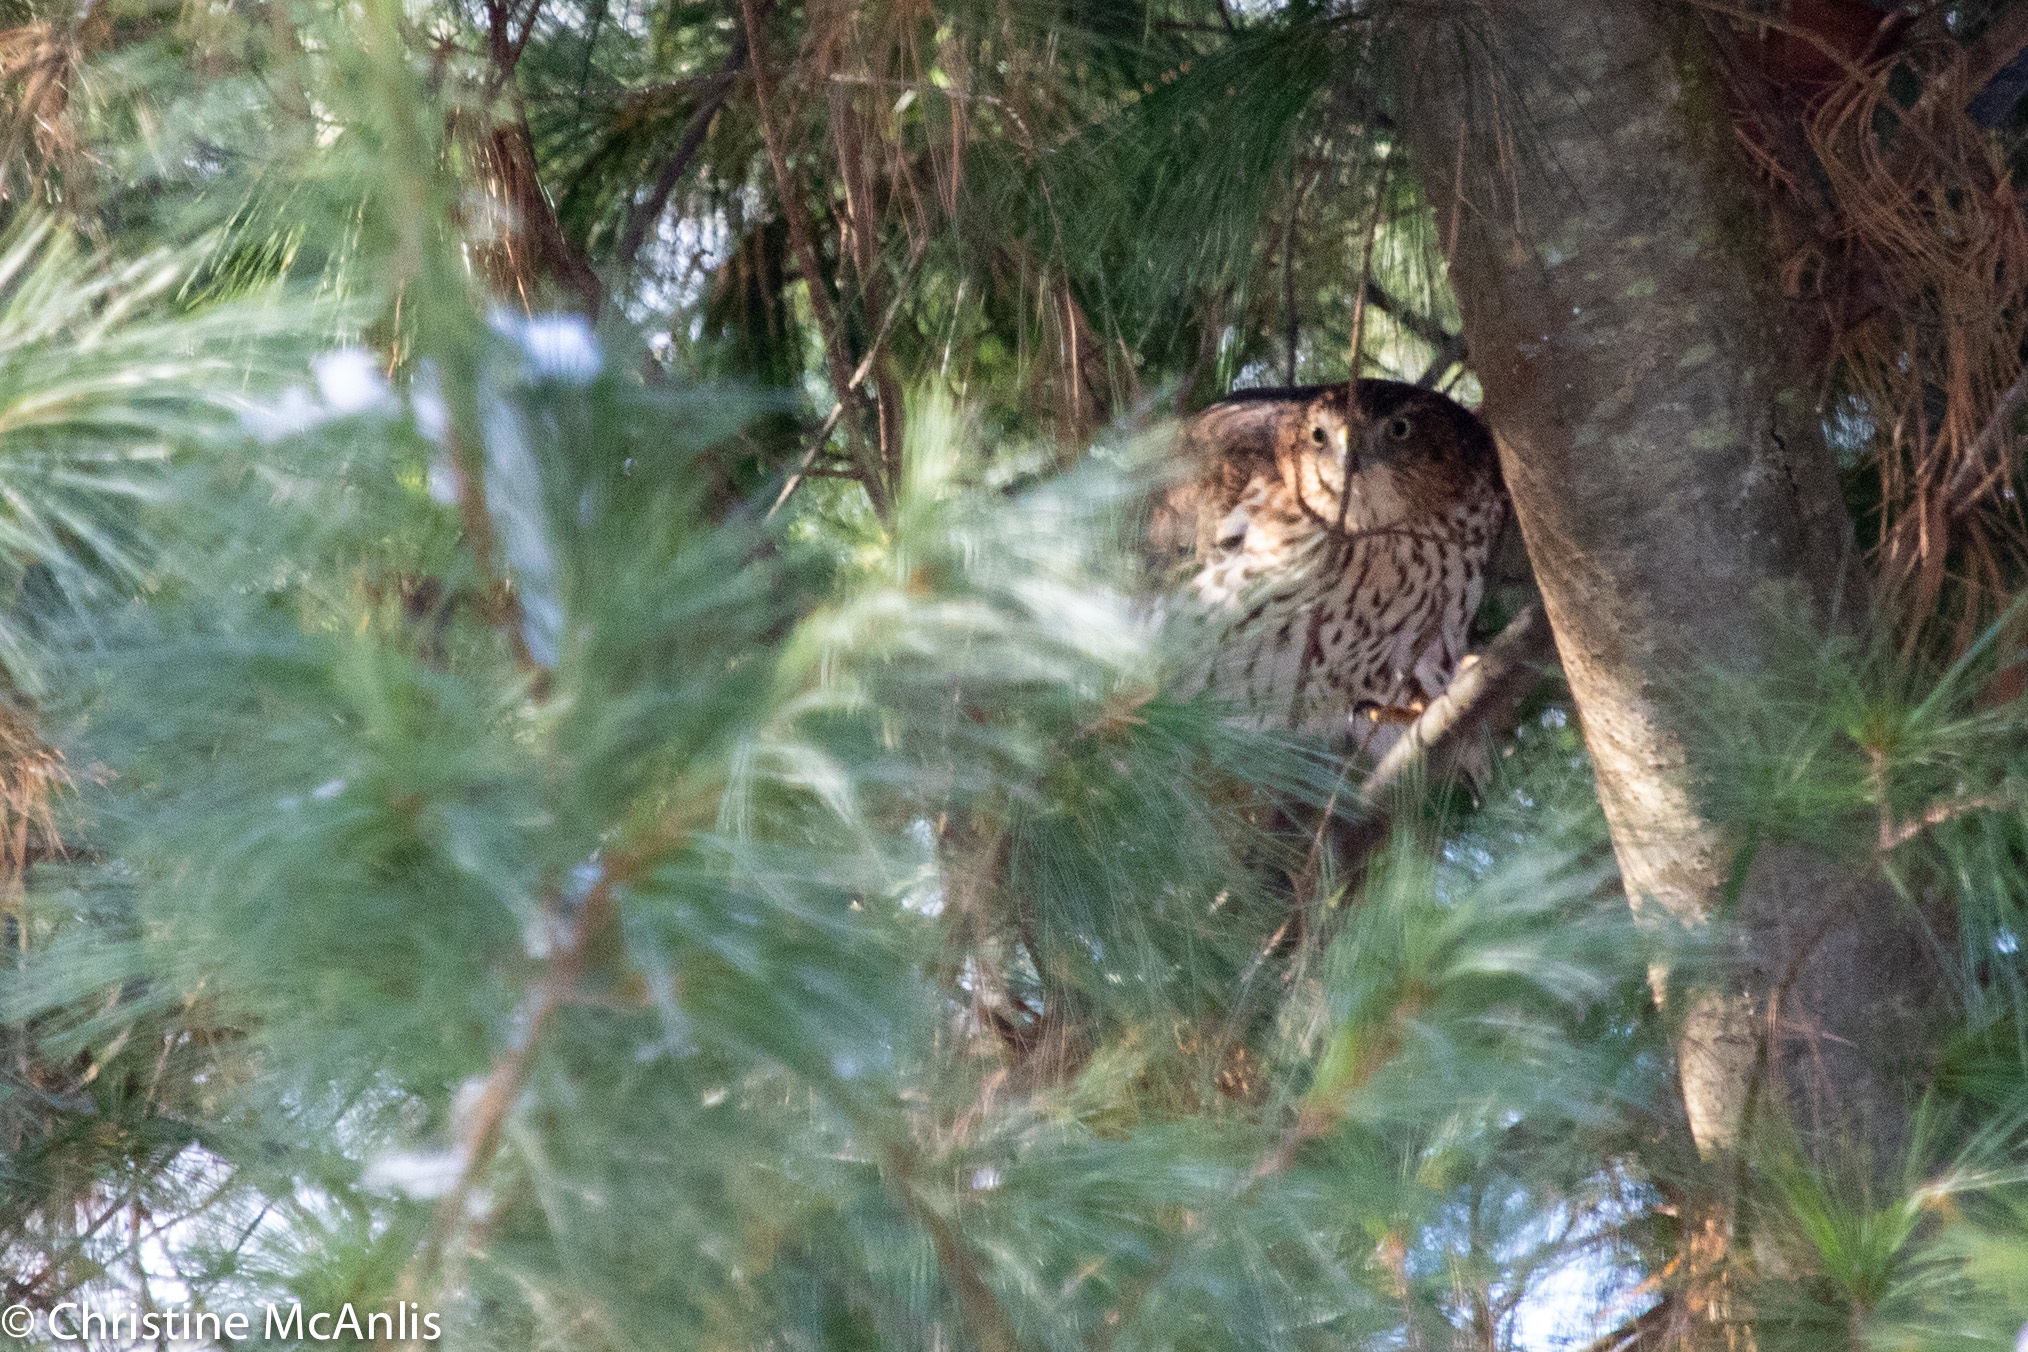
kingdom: Animalia
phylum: Chordata
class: Aves
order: Accipitriformes
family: Accipitridae
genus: Accipiter
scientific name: Accipiter cooperii
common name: Cooper's hawk
